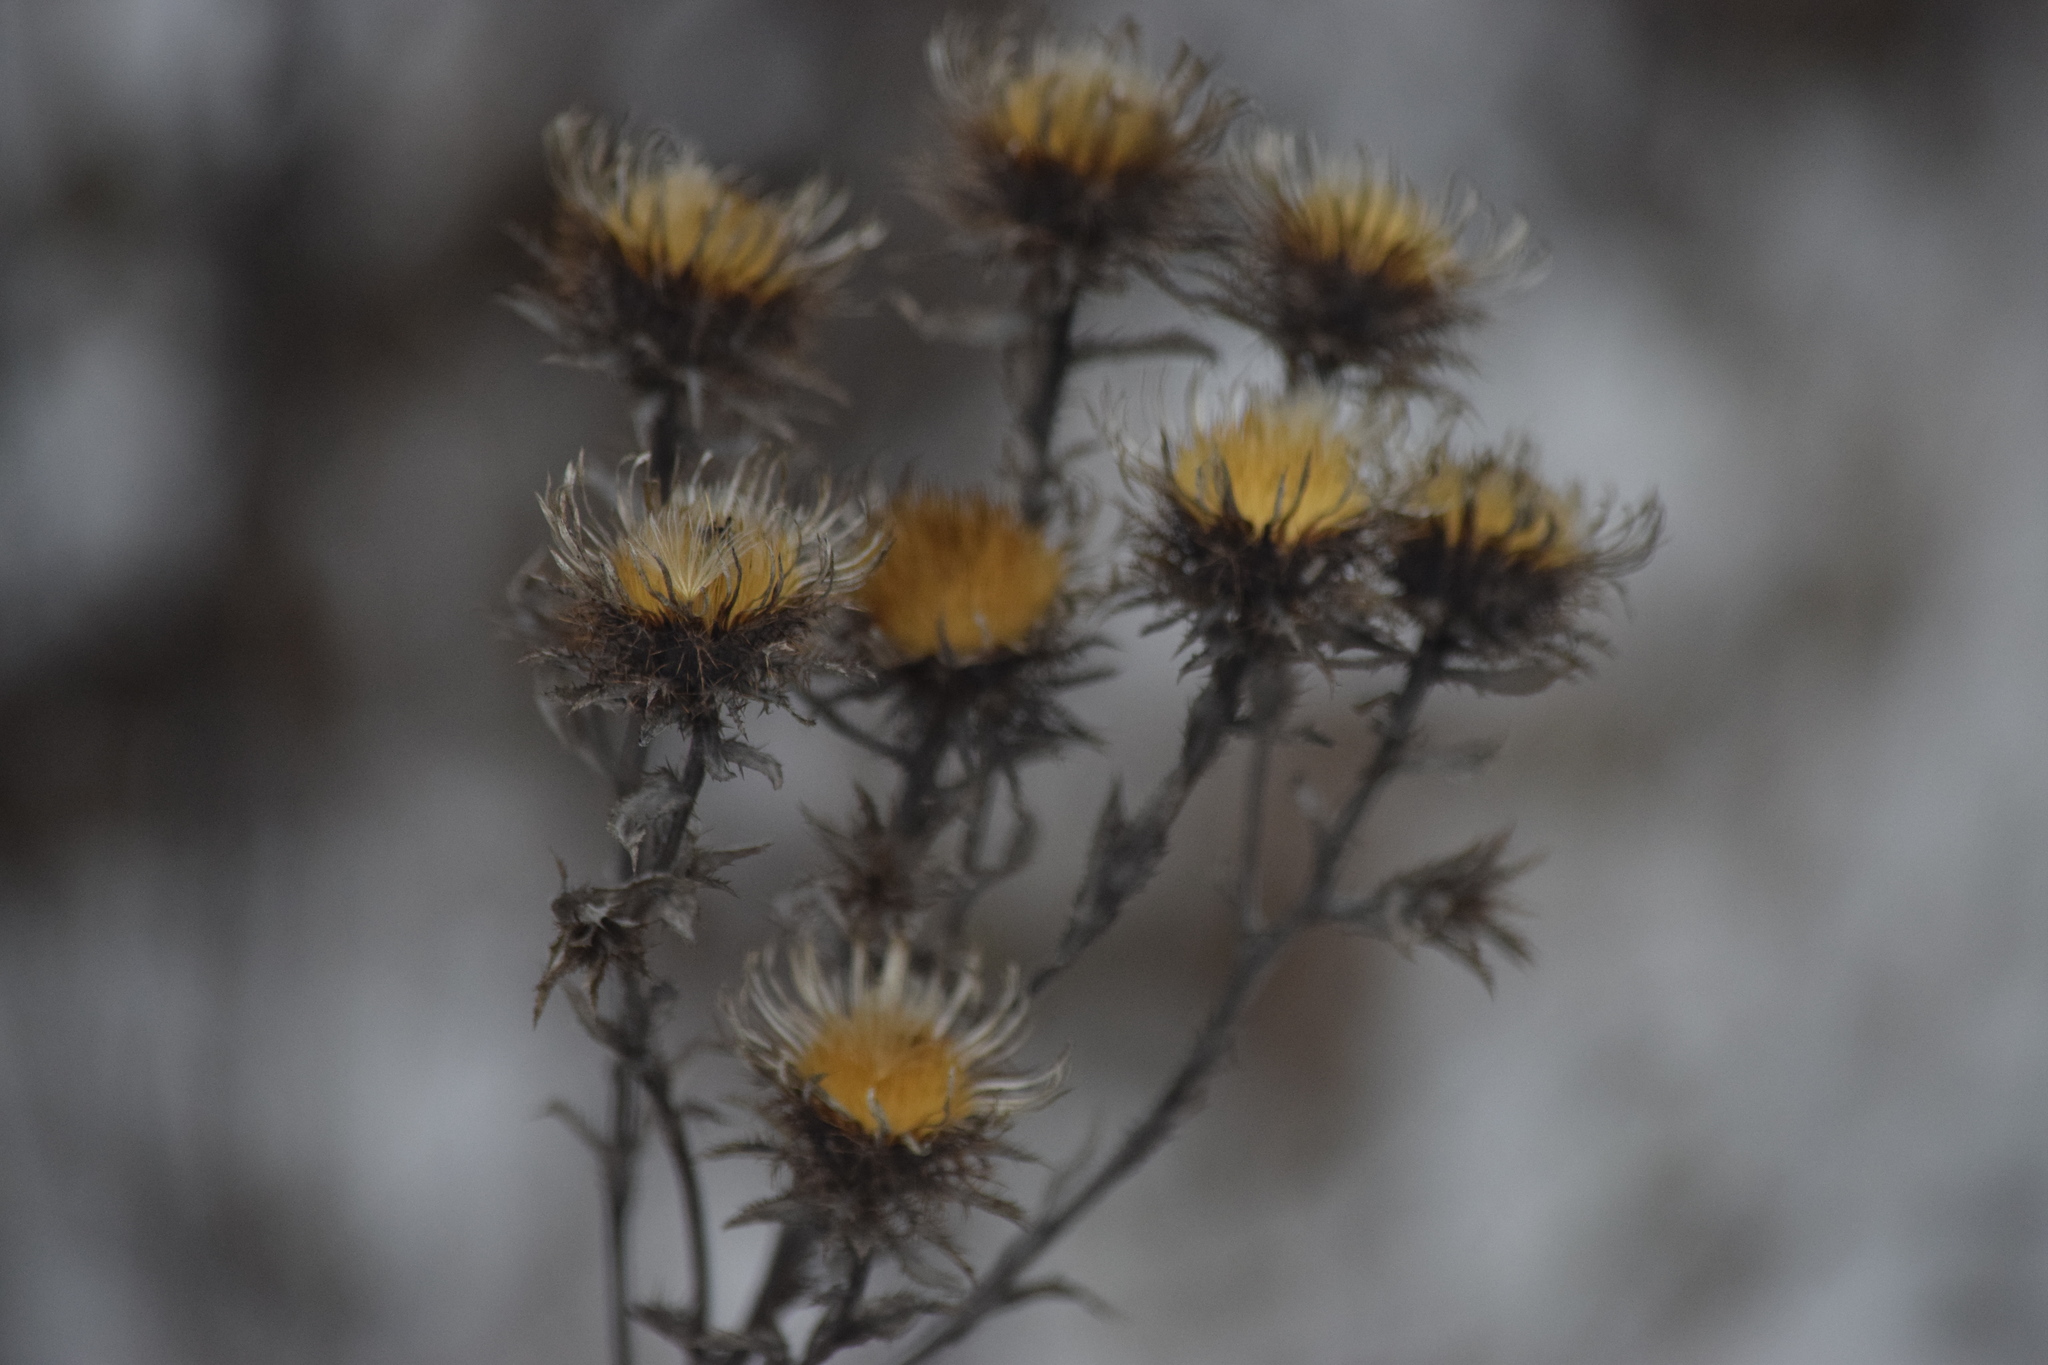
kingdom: Plantae
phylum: Tracheophyta
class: Magnoliopsida
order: Asterales
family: Asteraceae
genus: Carlina
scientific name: Carlina biebersteinii
